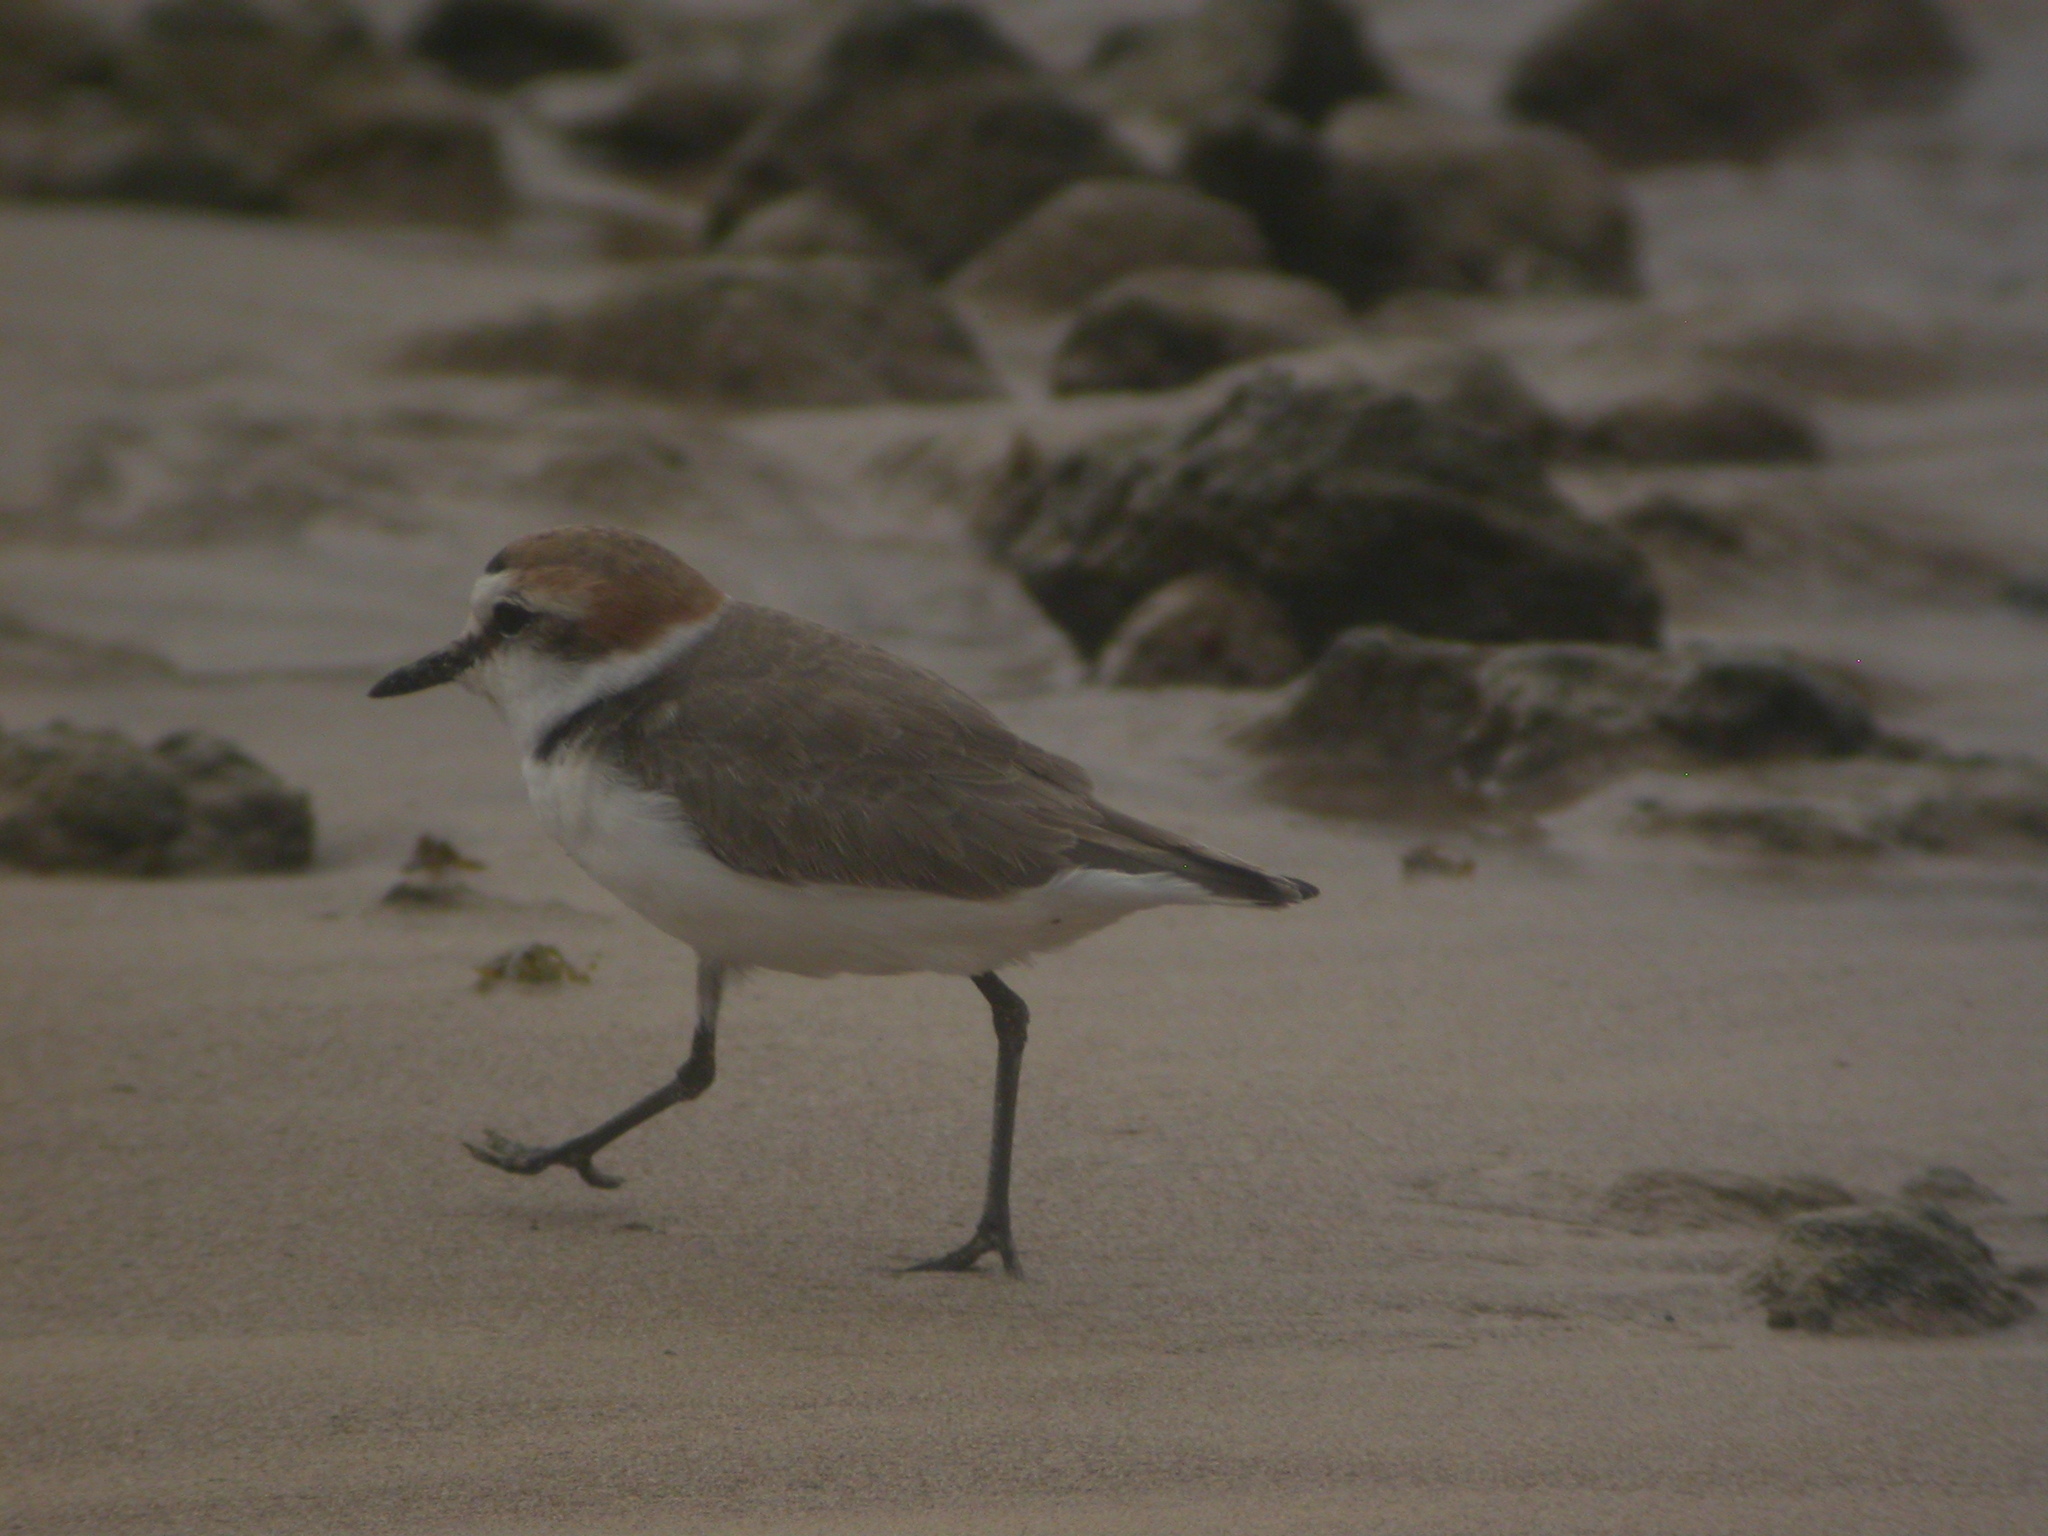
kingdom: Animalia
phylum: Chordata
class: Aves
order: Charadriiformes
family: Charadriidae
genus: Charadrius
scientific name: Charadrius alexandrinus
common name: Kentish plover
